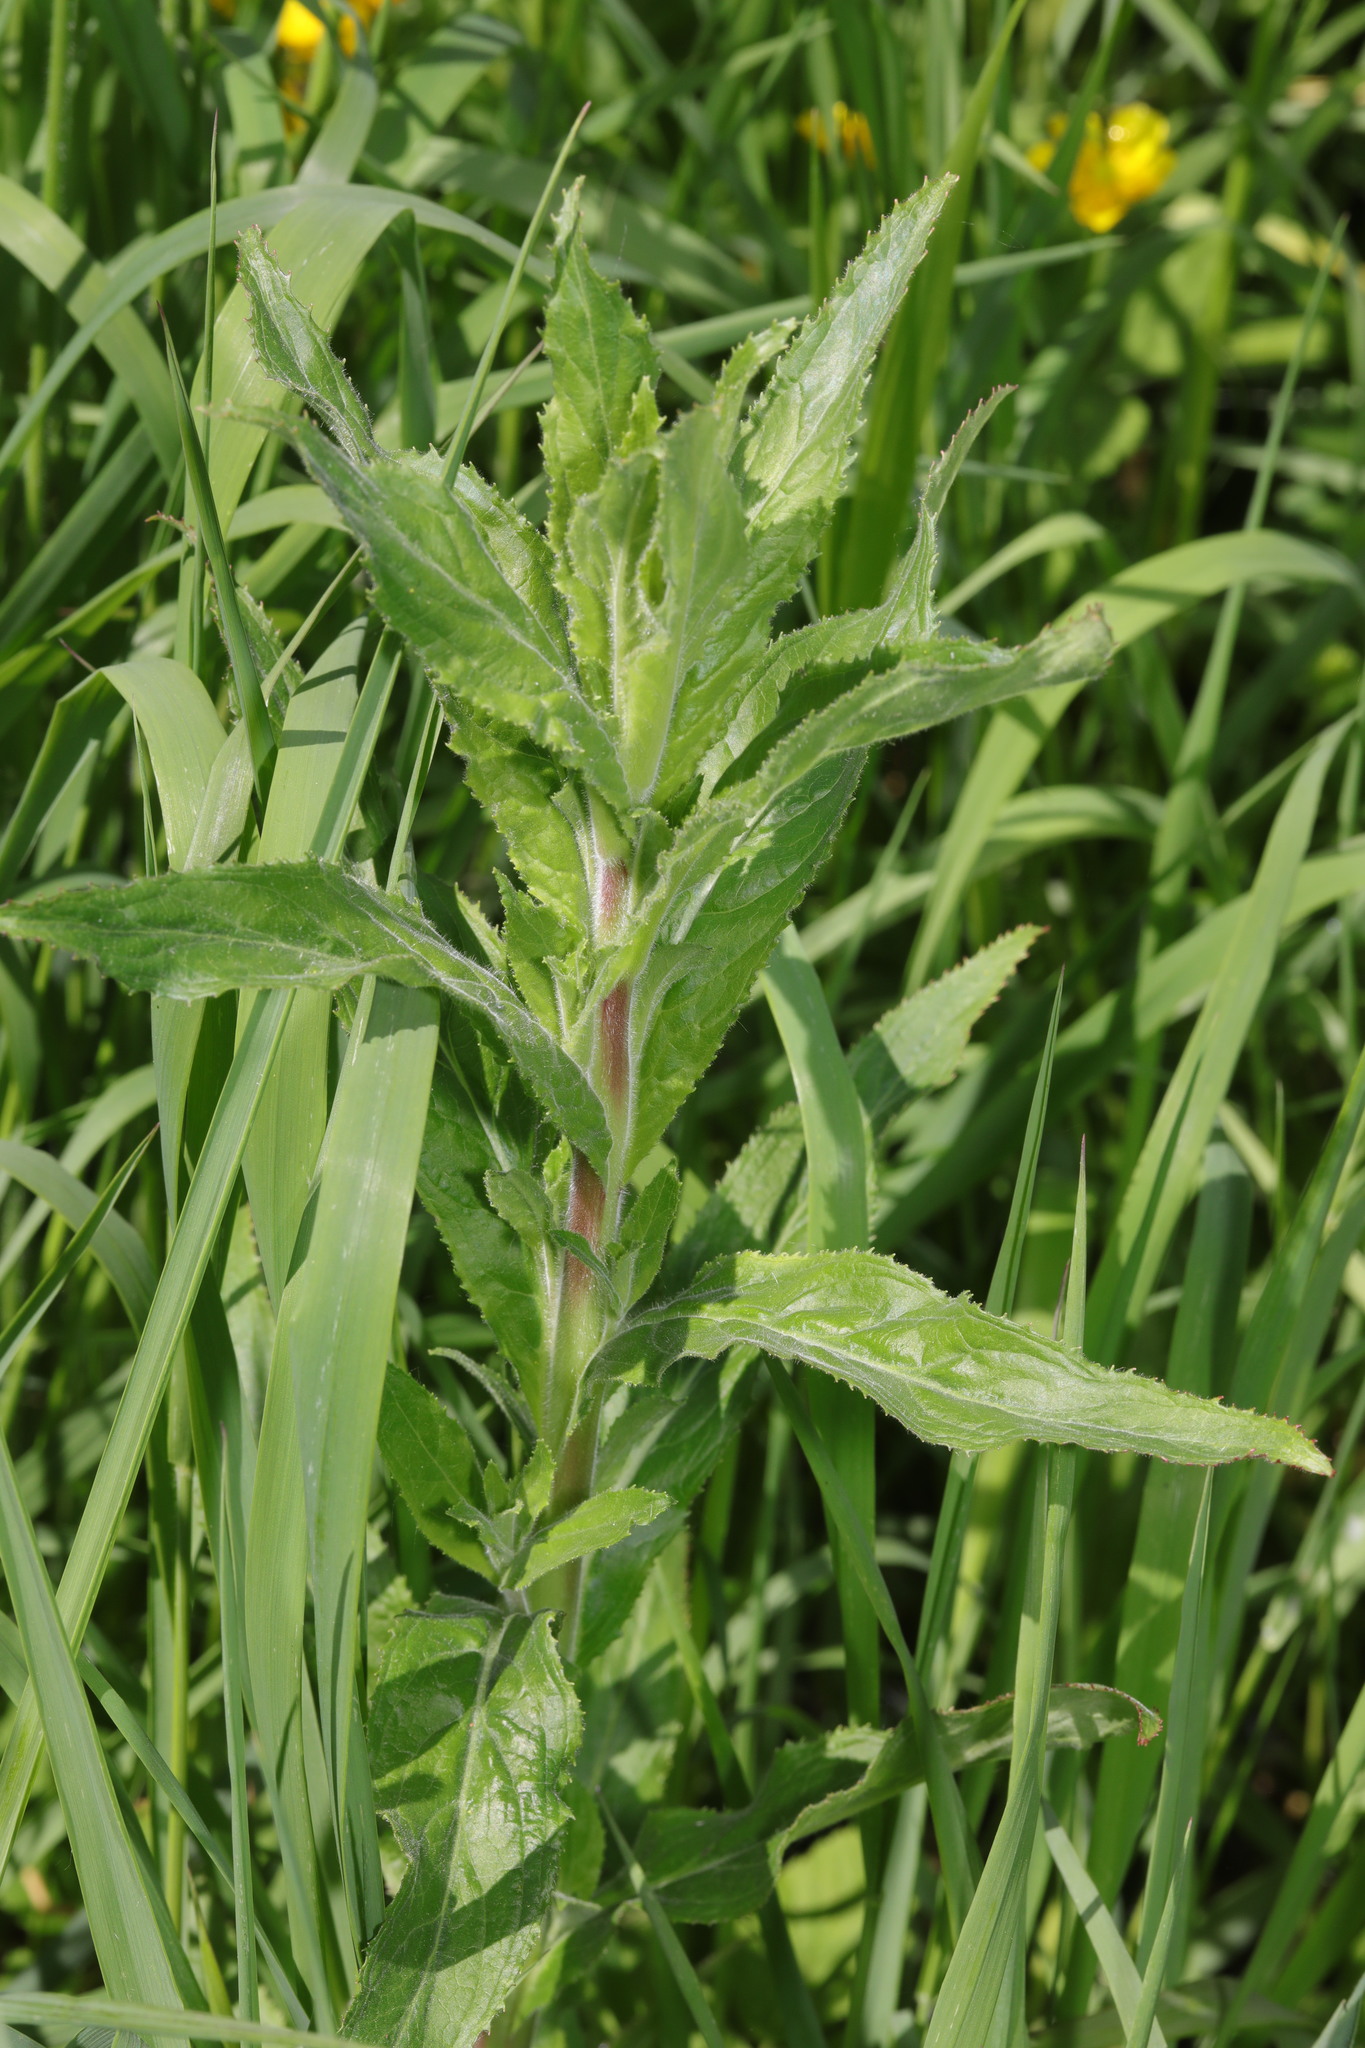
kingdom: Plantae
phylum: Tracheophyta
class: Magnoliopsida
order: Myrtales
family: Onagraceae
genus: Epilobium
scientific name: Epilobium hirsutum
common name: Great willowherb
